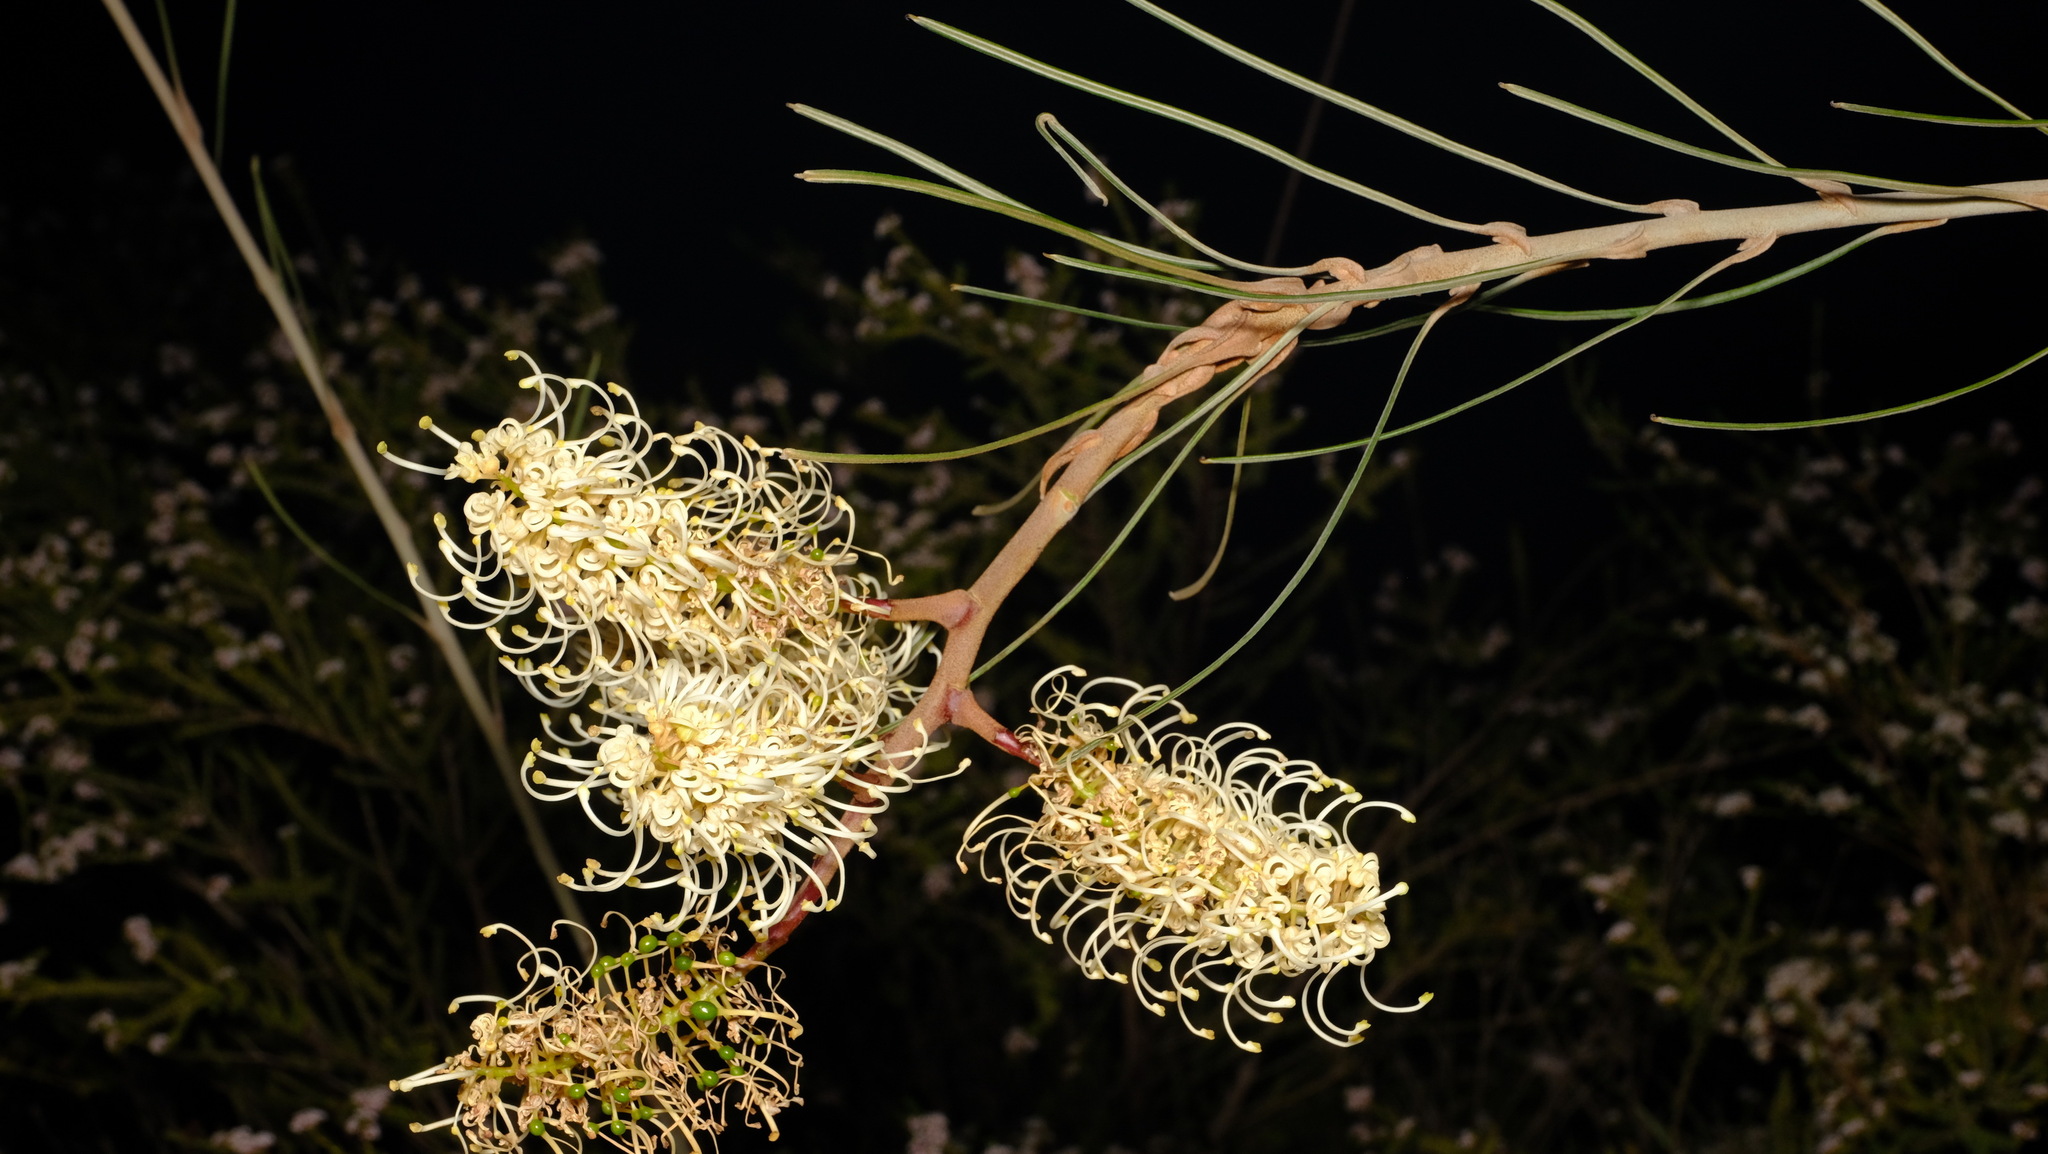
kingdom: Plantae
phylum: Tracheophyta
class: Magnoliopsida
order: Proteales
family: Proteaceae
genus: Grevillea
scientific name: Grevillea leucopteris
